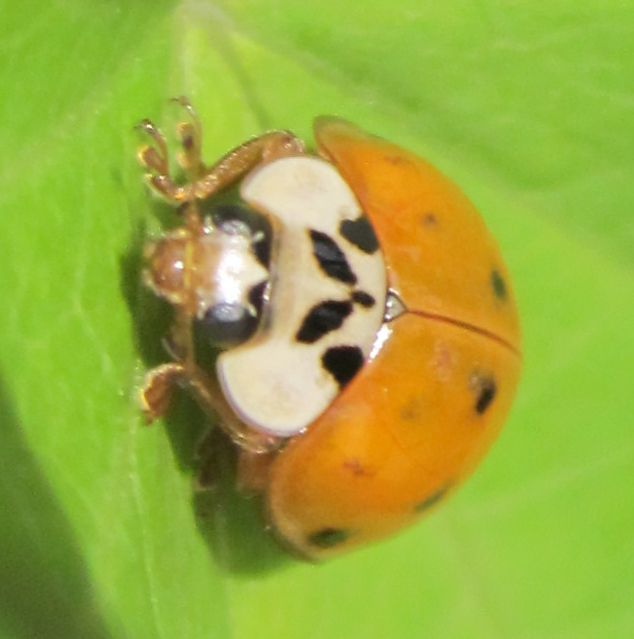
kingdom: Animalia
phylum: Arthropoda
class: Insecta
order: Coleoptera
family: Coccinellidae
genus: Harmonia
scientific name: Harmonia axyridis
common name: Harlequin ladybird
